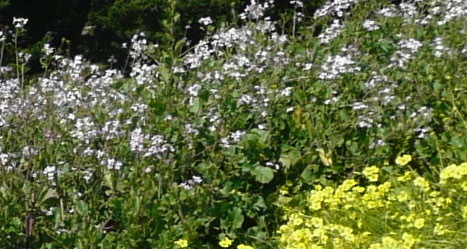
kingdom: Plantae
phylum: Tracheophyta
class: Magnoliopsida
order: Brassicales
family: Brassicaceae
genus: Raphanus
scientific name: Raphanus sativus
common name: Cultivated radish
